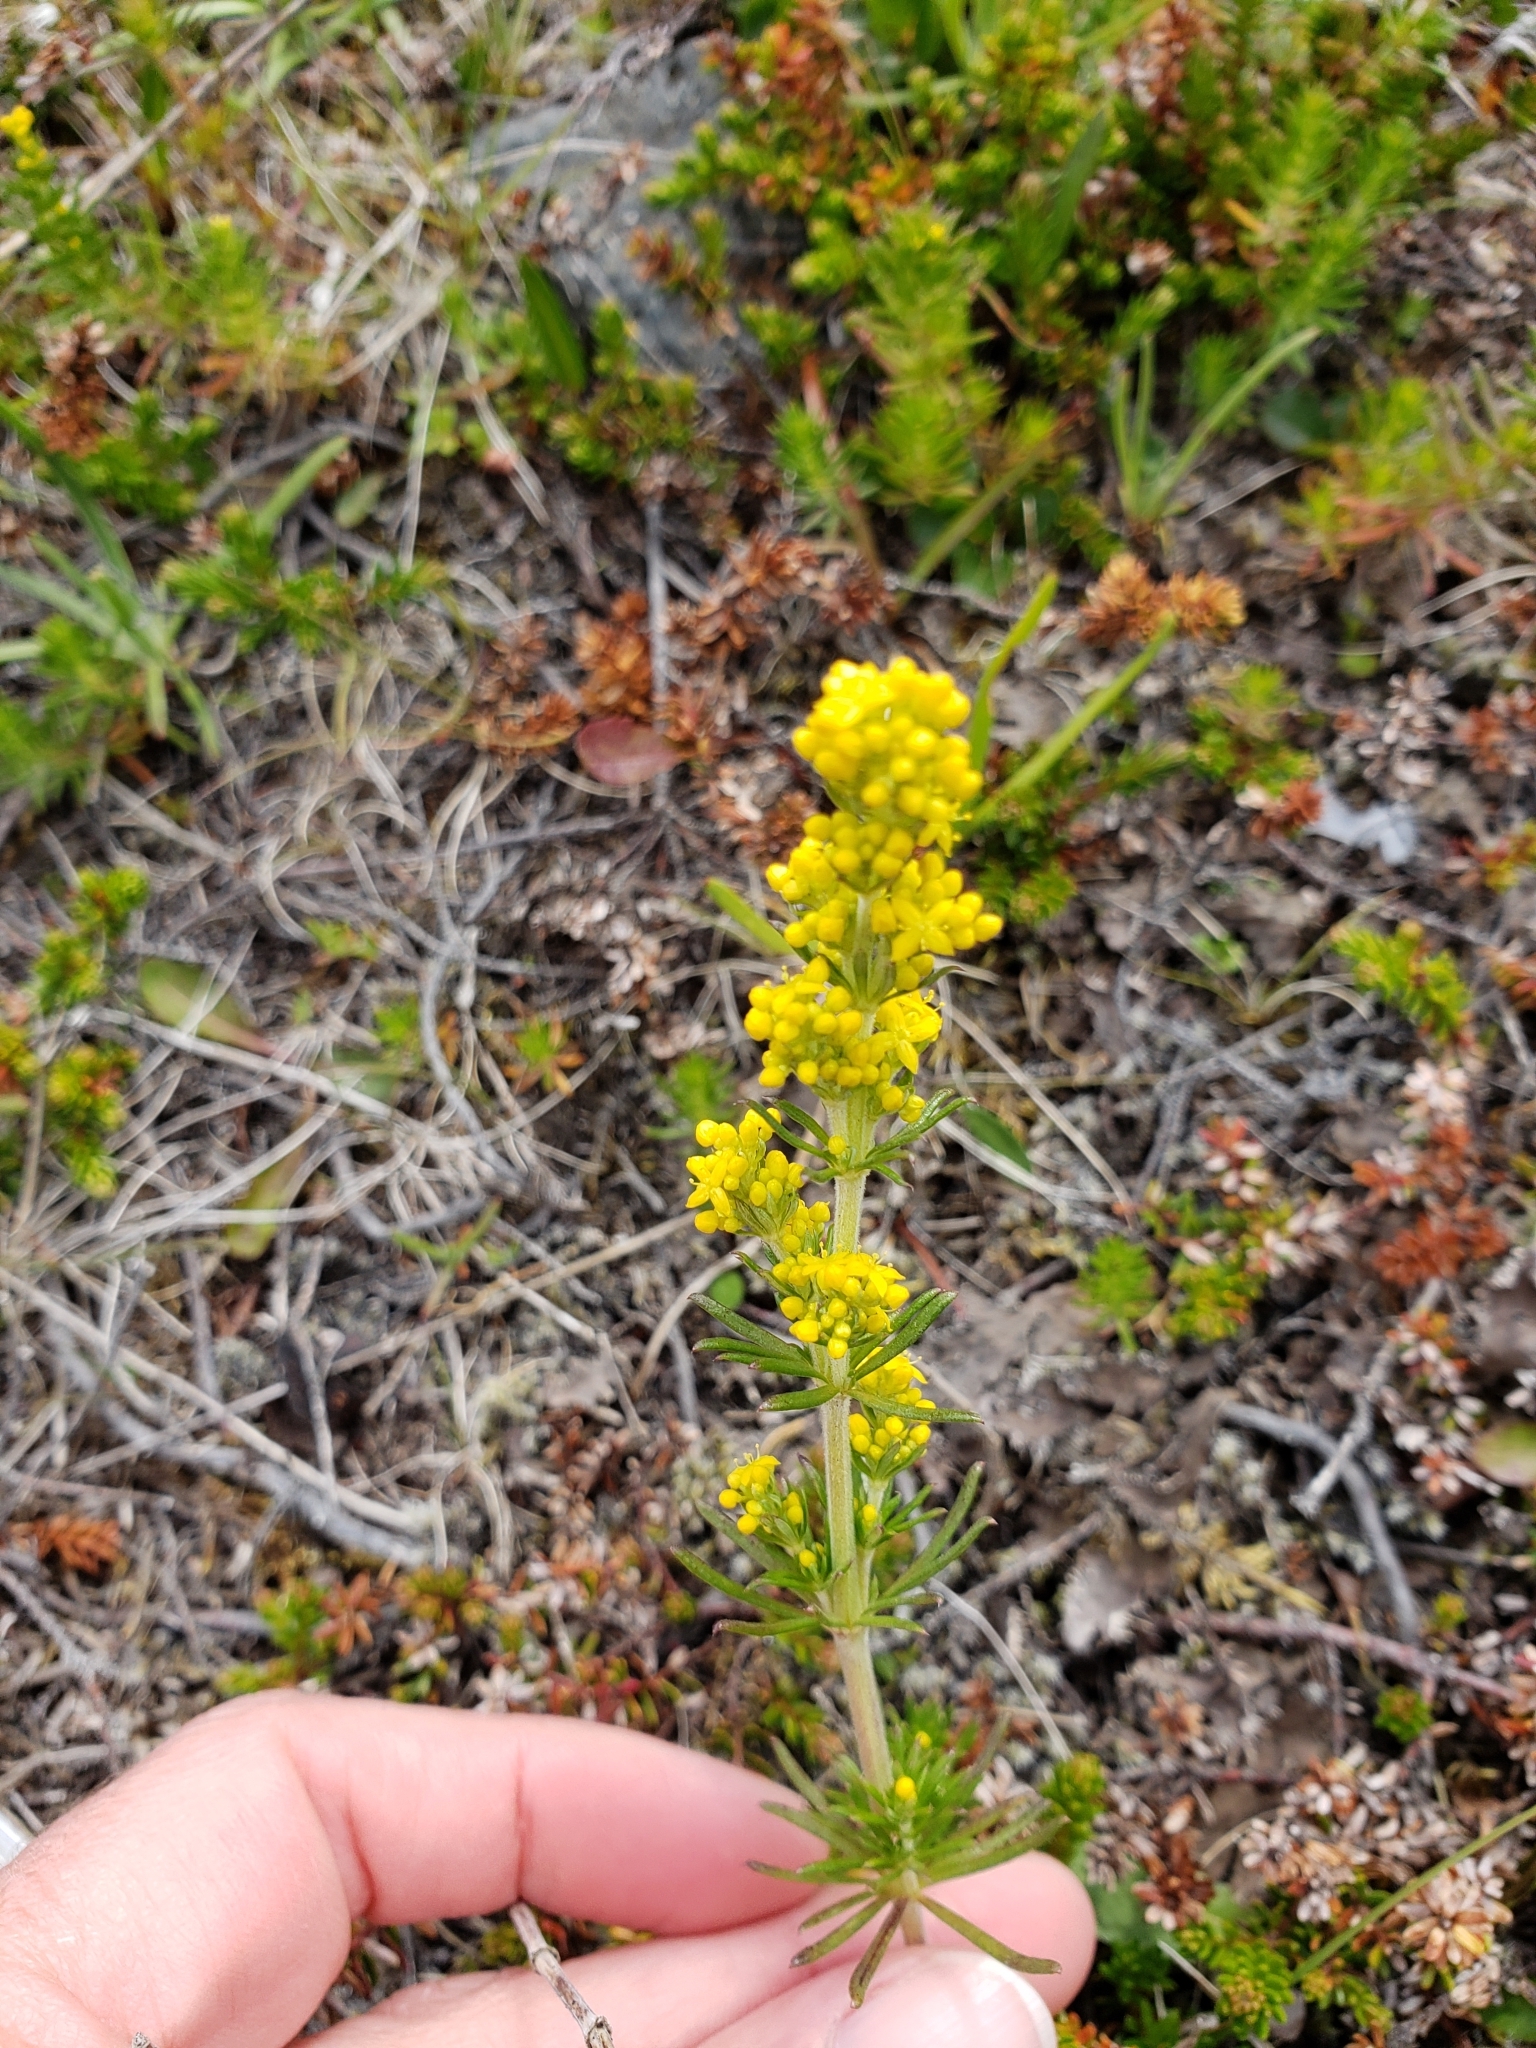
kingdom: Plantae
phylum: Tracheophyta
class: Magnoliopsida
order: Gentianales
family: Rubiaceae
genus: Galium
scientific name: Galium verum
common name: Lady's bedstraw
